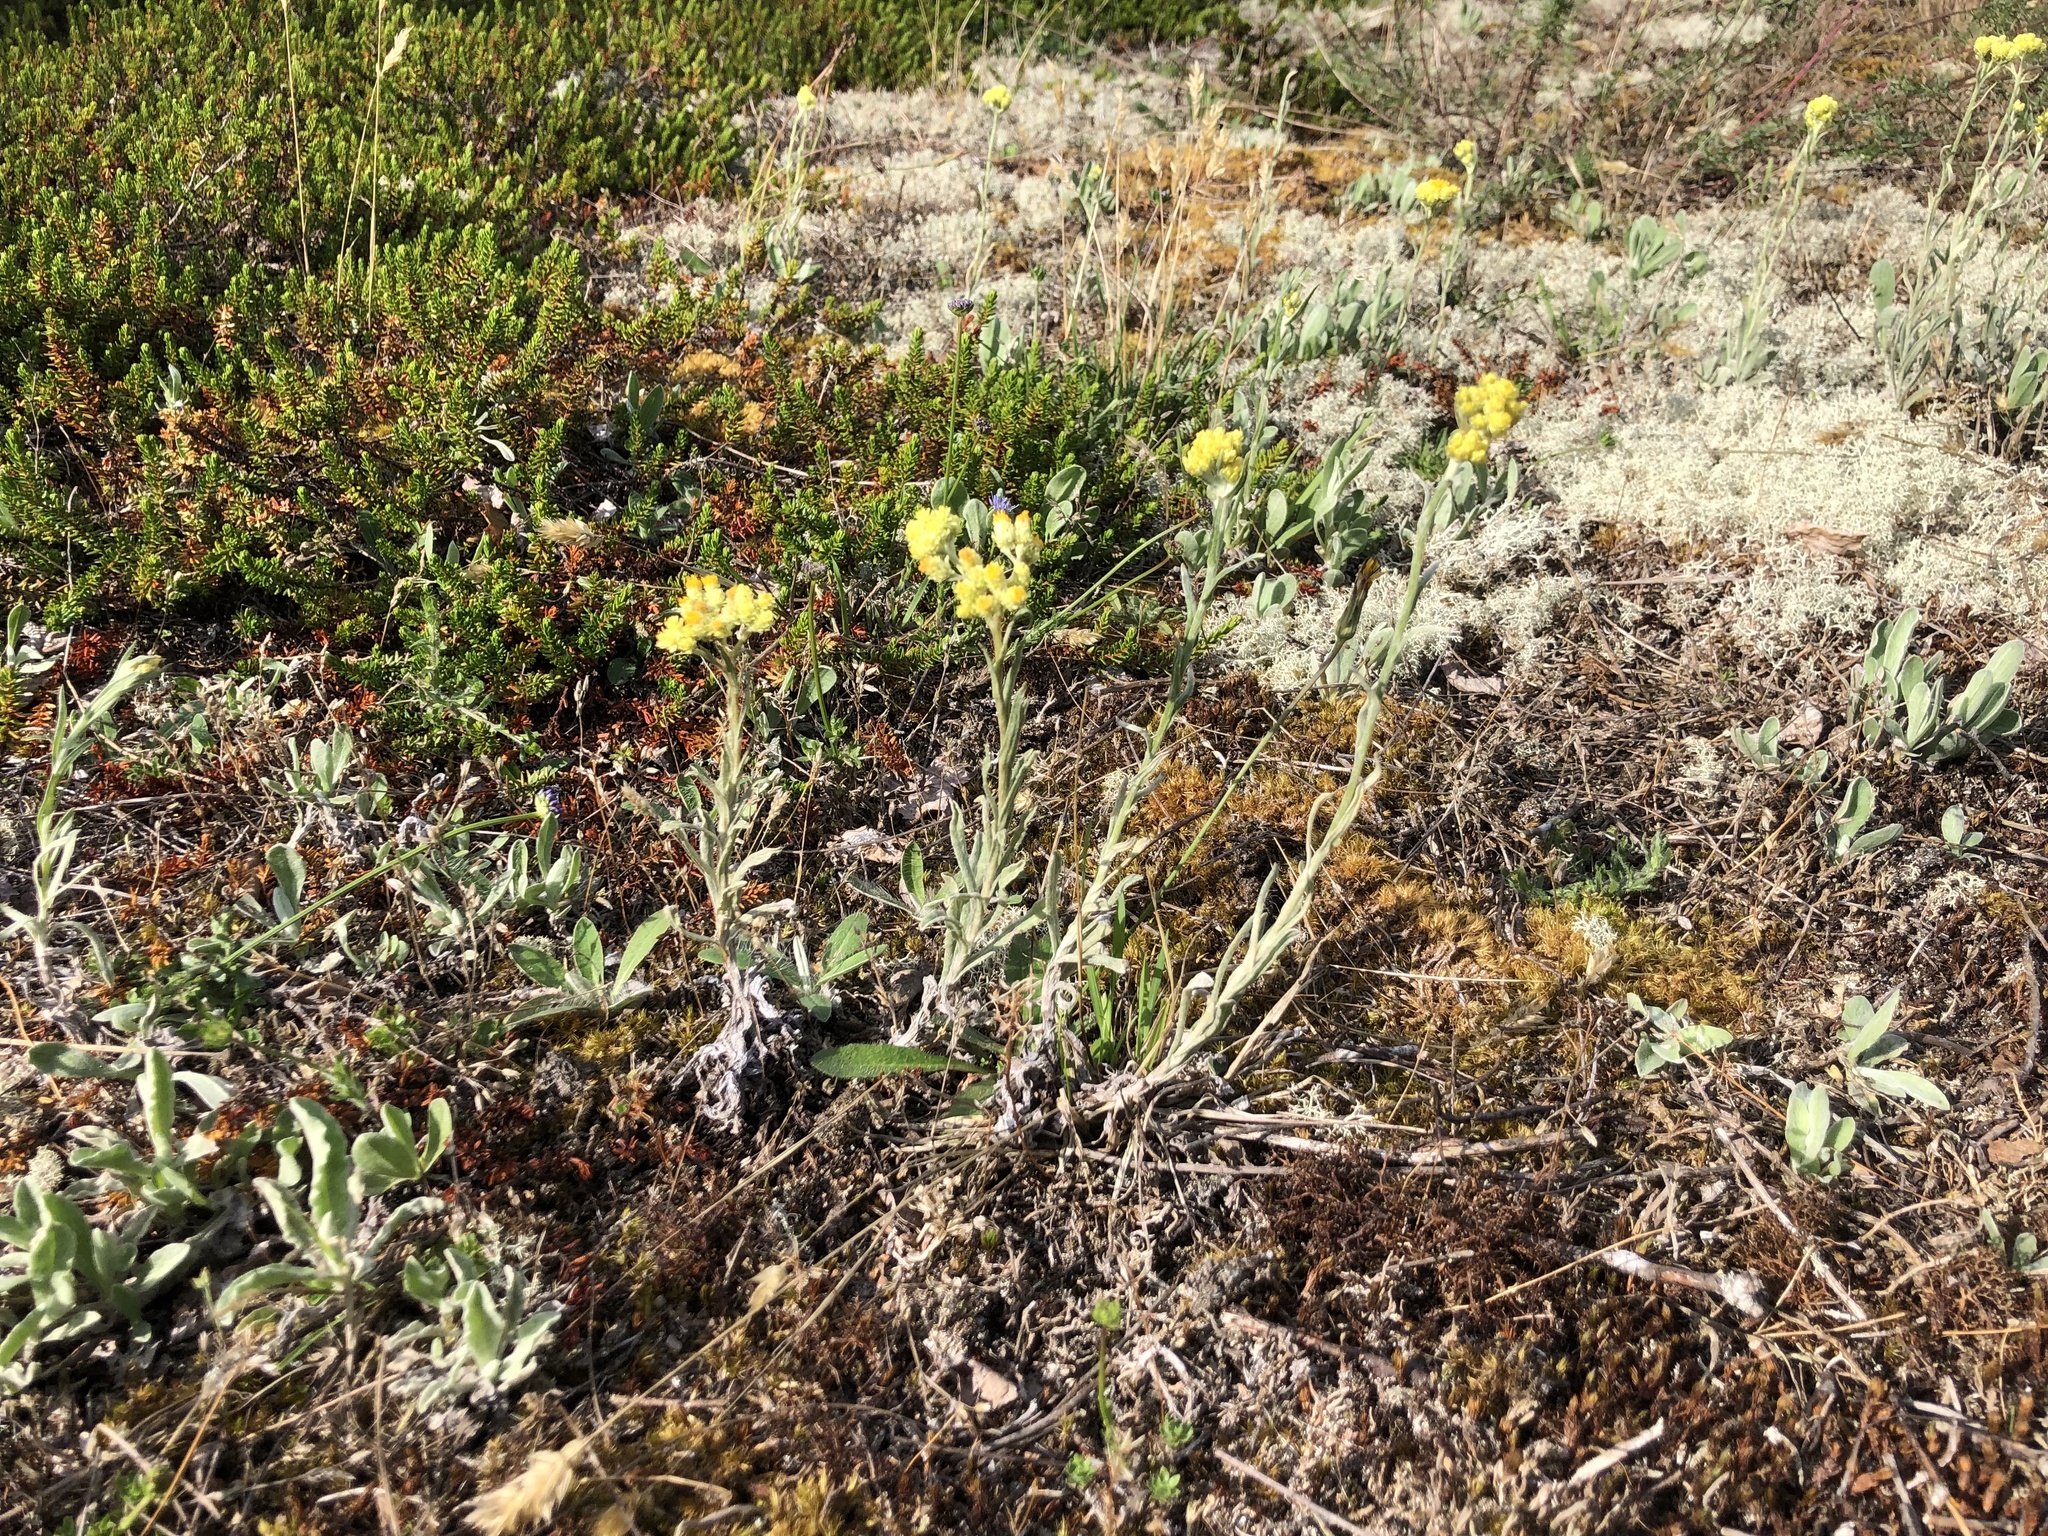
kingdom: Plantae
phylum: Tracheophyta
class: Magnoliopsida
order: Asterales
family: Asteraceae
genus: Helichrysum
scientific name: Helichrysum arenarium
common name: Strawflower
